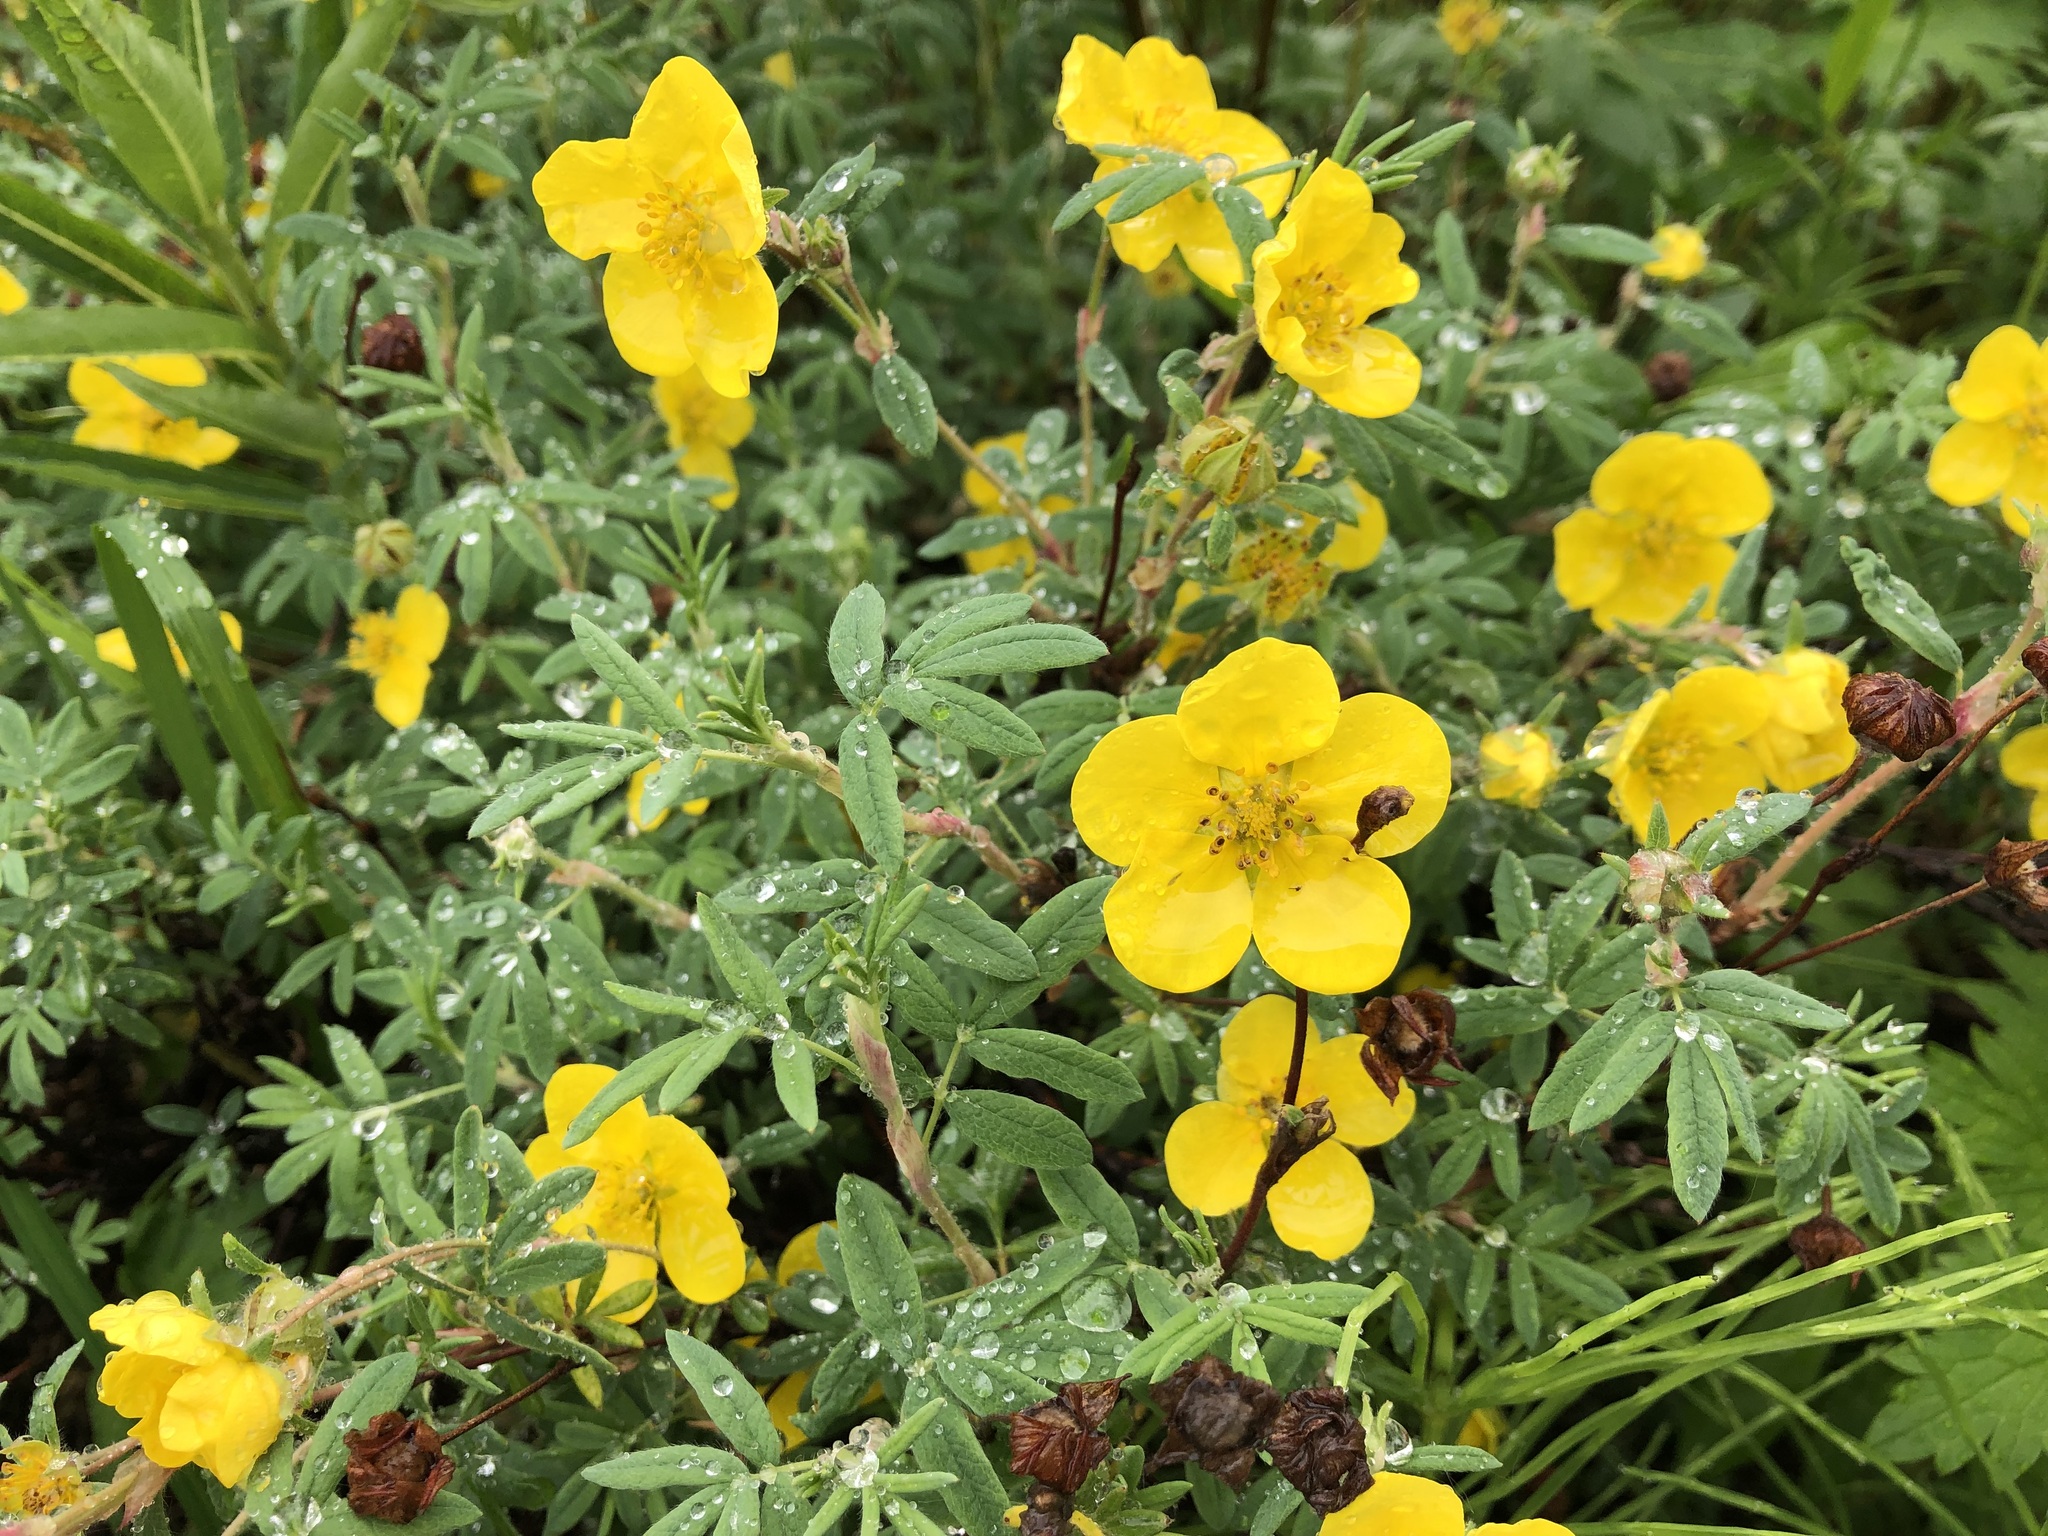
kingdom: Plantae
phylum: Tracheophyta
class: Magnoliopsida
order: Rosales
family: Rosaceae
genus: Dasiphora
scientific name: Dasiphora fruticosa
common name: Shrubby cinquefoil
